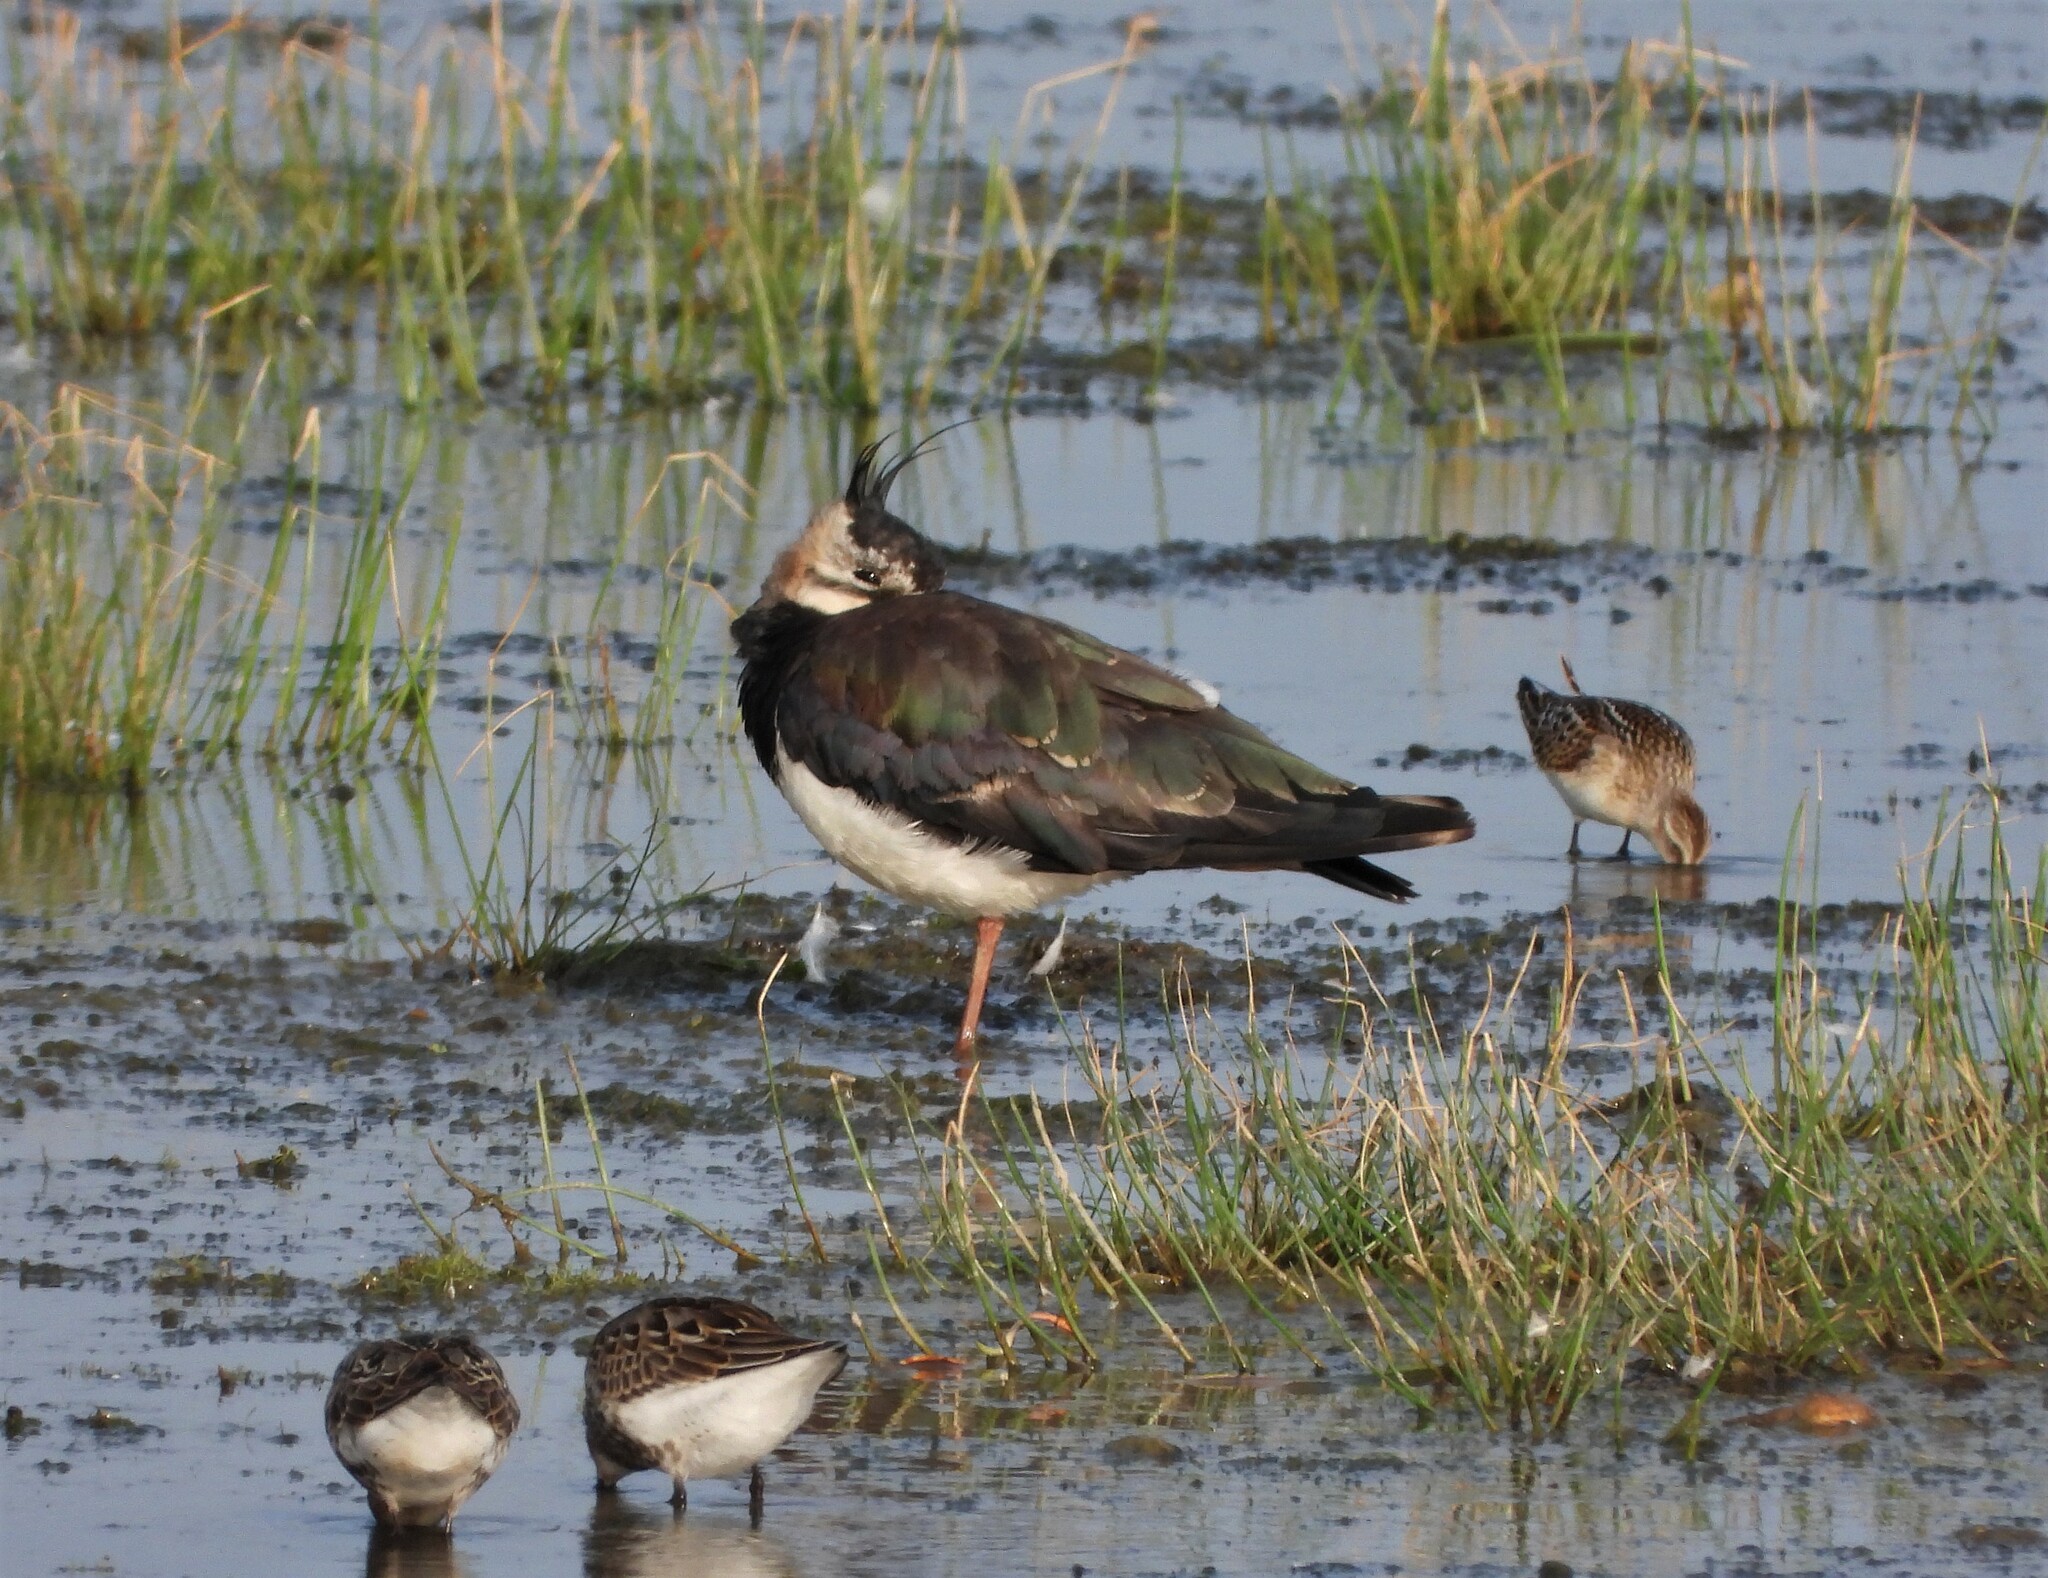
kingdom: Animalia
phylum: Chordata
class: Aves
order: Charadriiformes
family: Charadriidae
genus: Vanellus
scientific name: Vanellus vanellus
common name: Northern lapwing
